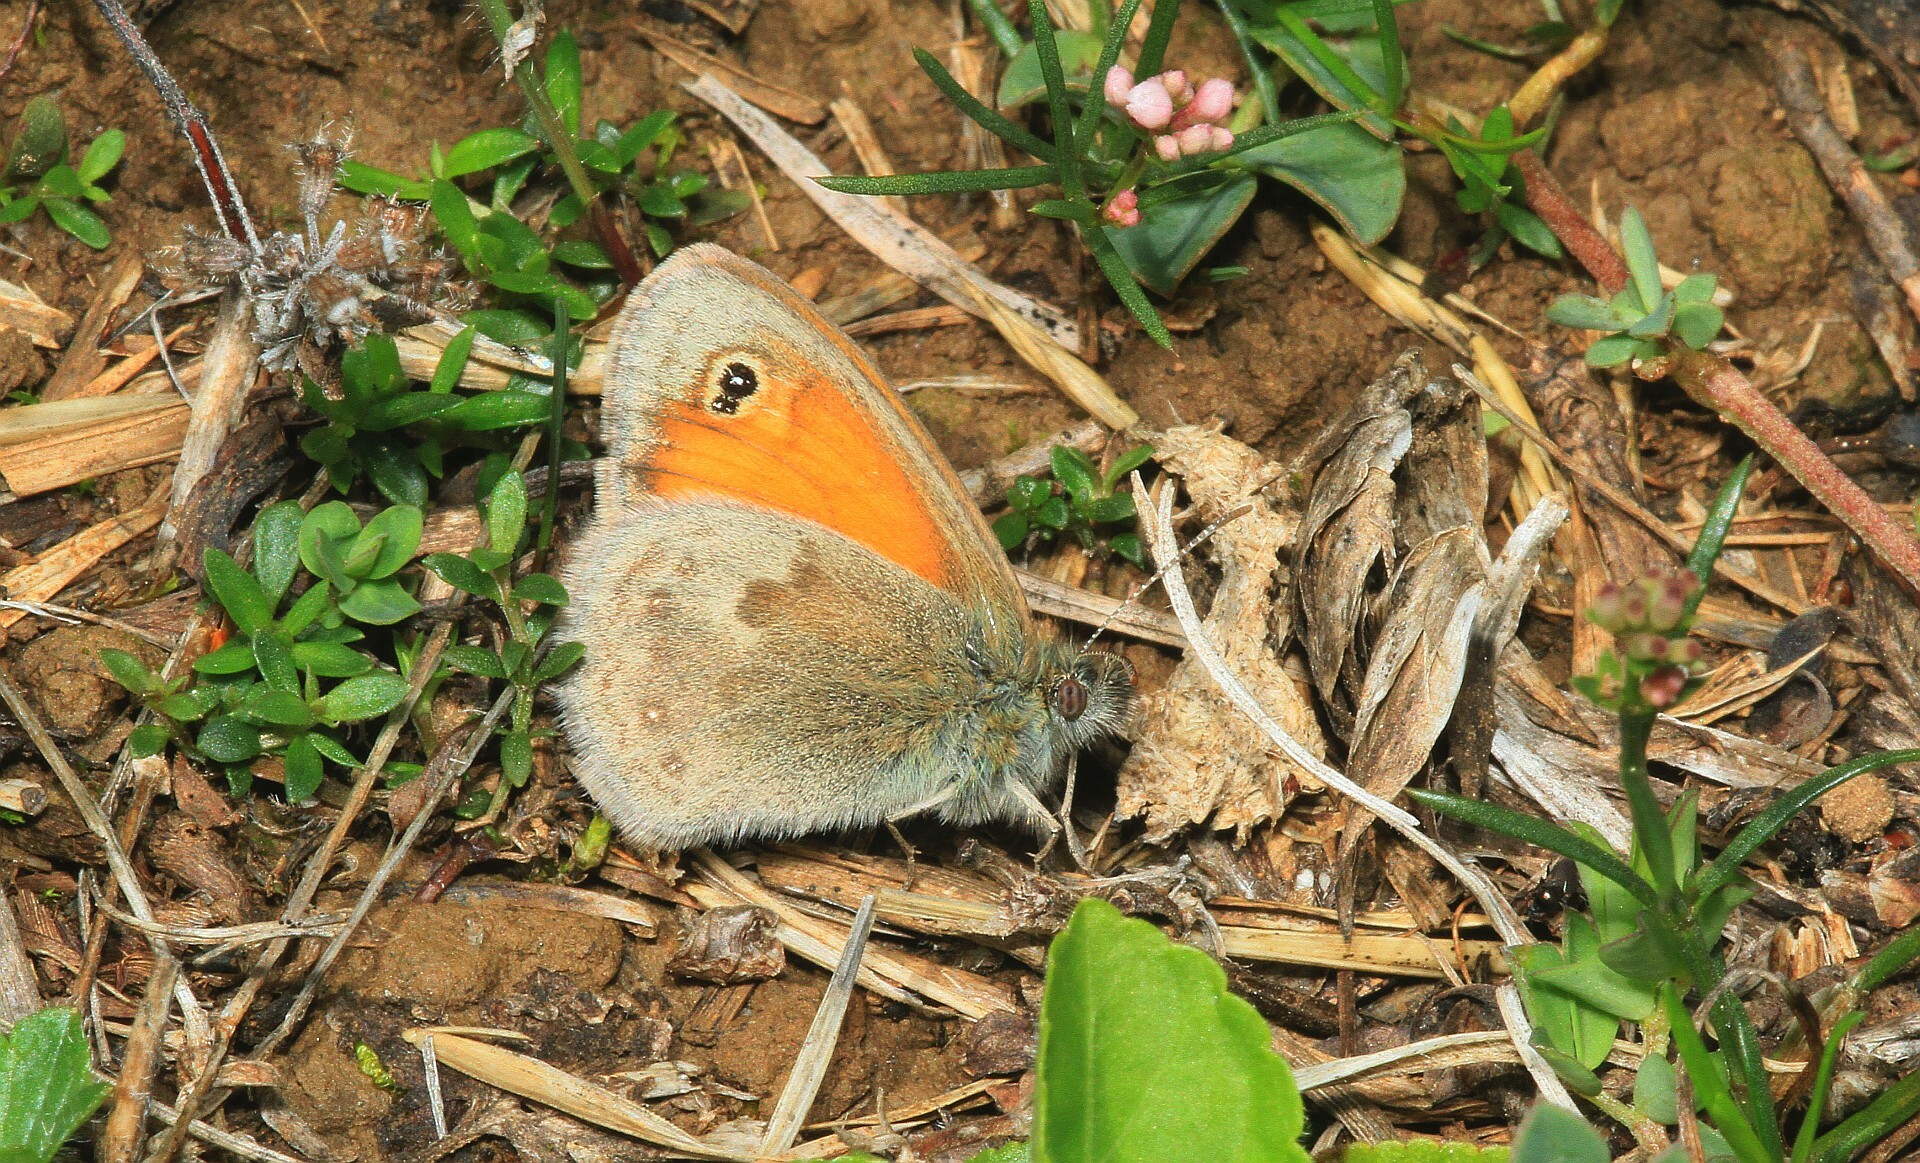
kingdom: Animalia
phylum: Arthropoda
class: Insecta
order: Lepidoptera
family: Nymphalidae
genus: Coenonympha
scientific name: Coenonympha pamphilus
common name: Small heath
